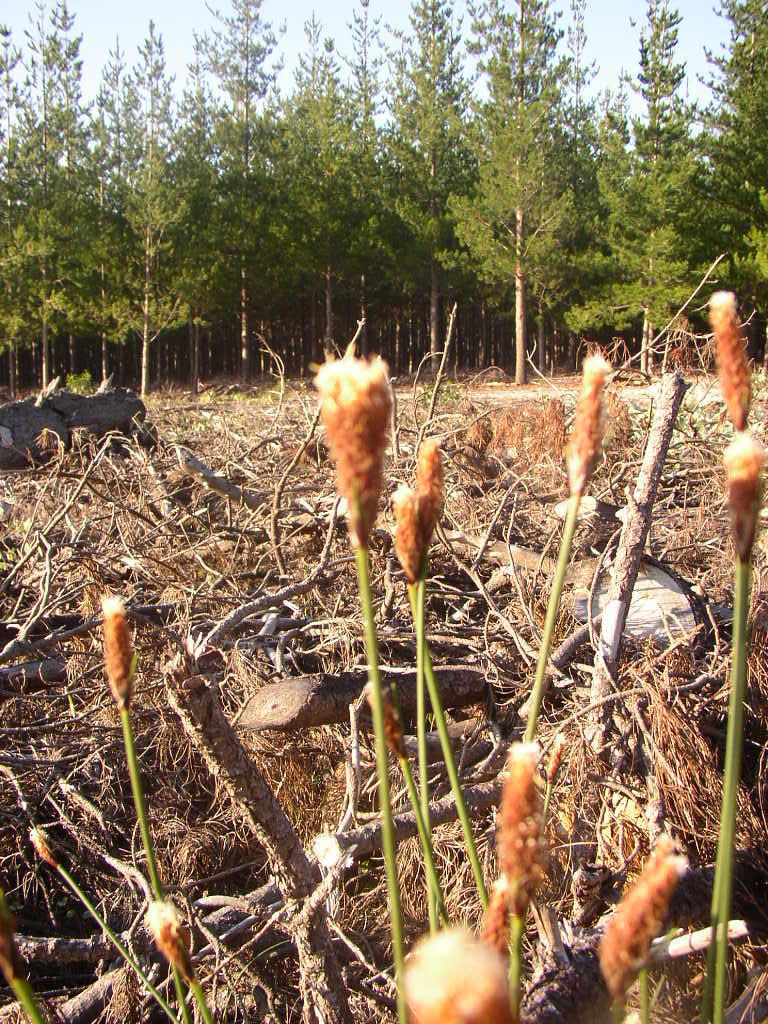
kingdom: Plantae
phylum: Tracheophyta
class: Liliopsida
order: Poales
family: Cyperaceae
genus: Ficinia
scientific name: Ficinia deusta
